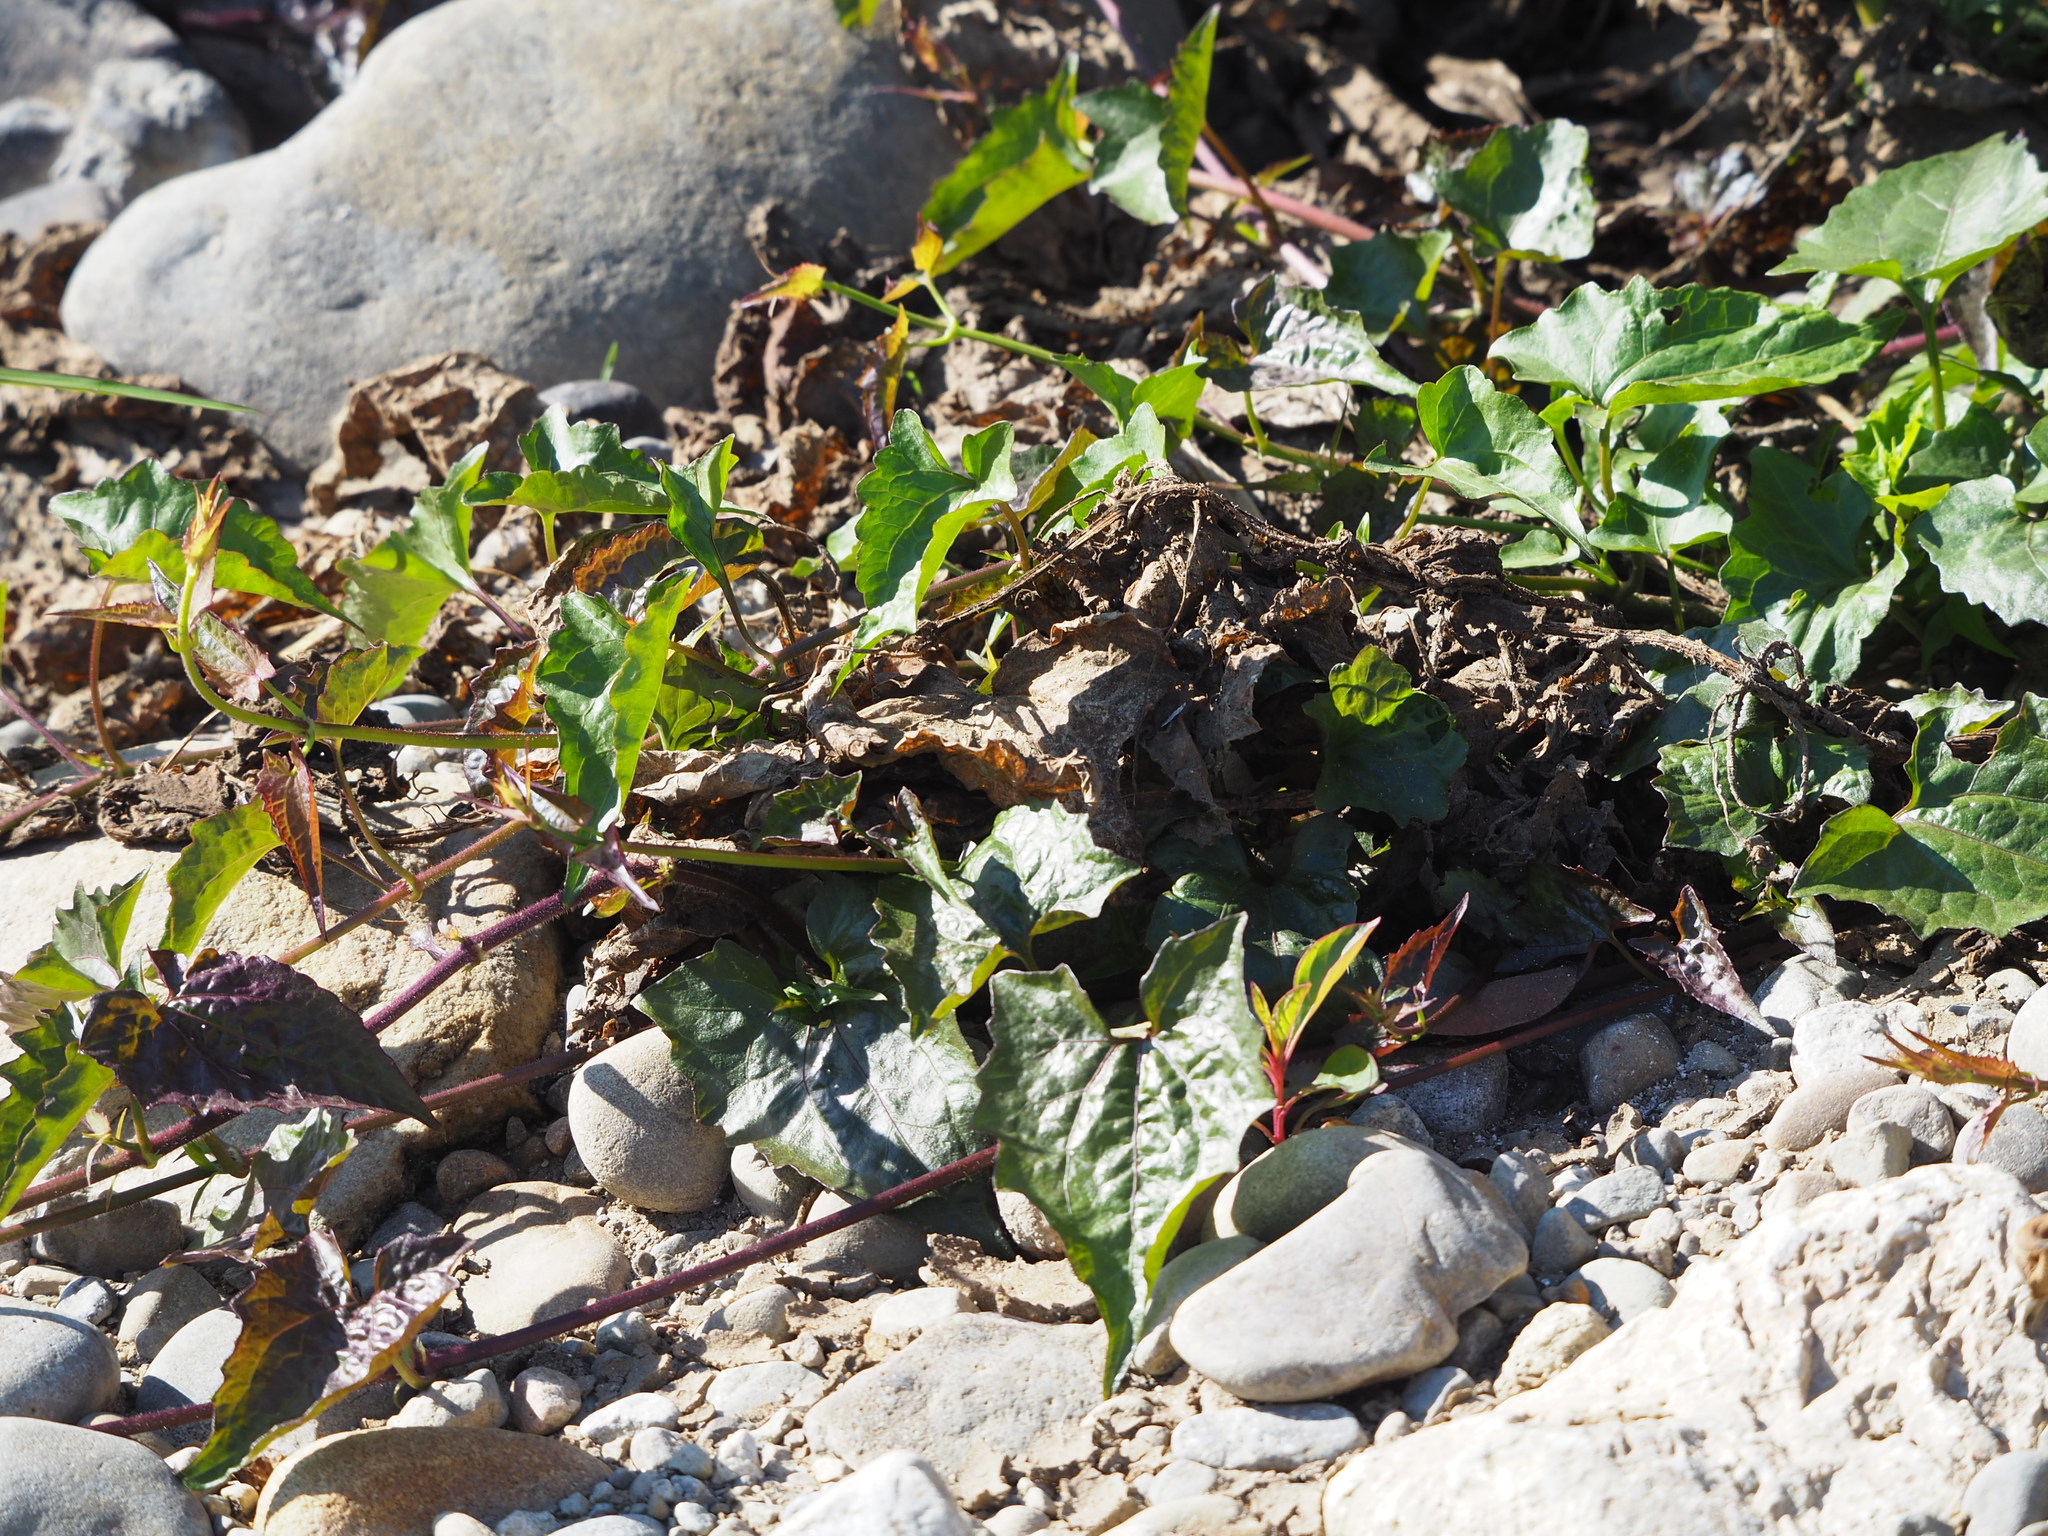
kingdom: Plantae
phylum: Tracheophyta
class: Magnoliopsida
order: Asterales
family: Asteraceae
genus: Mikania
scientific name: Mikania micrantha
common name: Mile-a-minute
